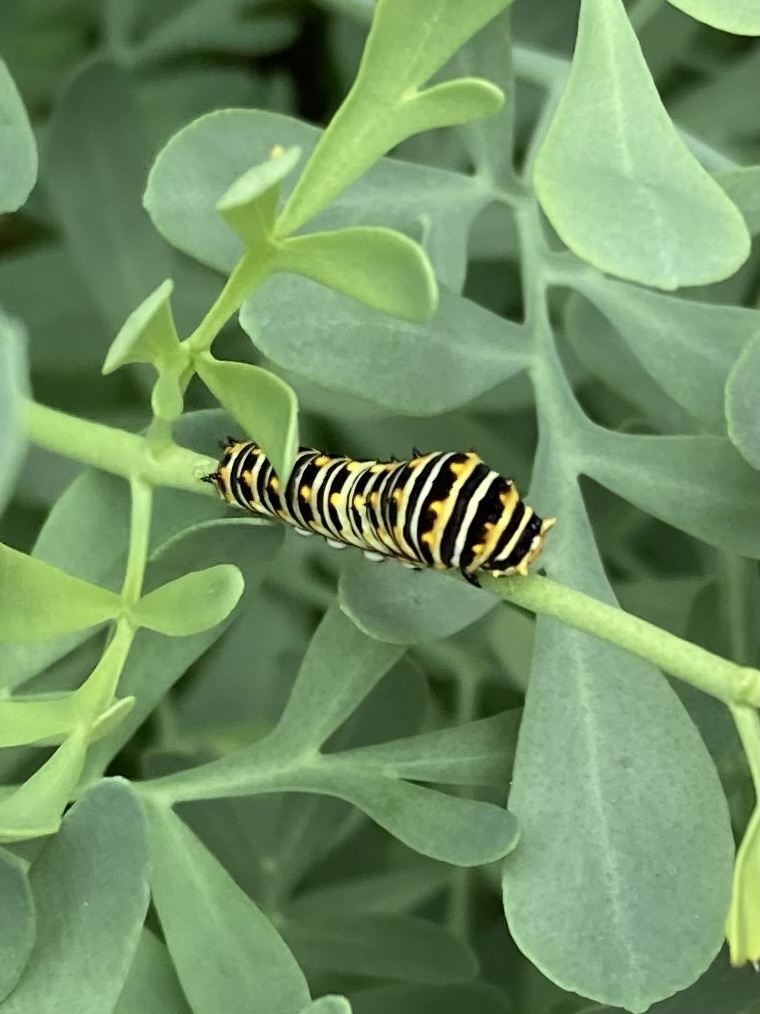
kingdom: Animalia
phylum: Arthropoda
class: Insecta
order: Lepidoptera
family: Papilionidae
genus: Papilio
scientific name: Papilio polyxenes
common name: Black swallowtail
